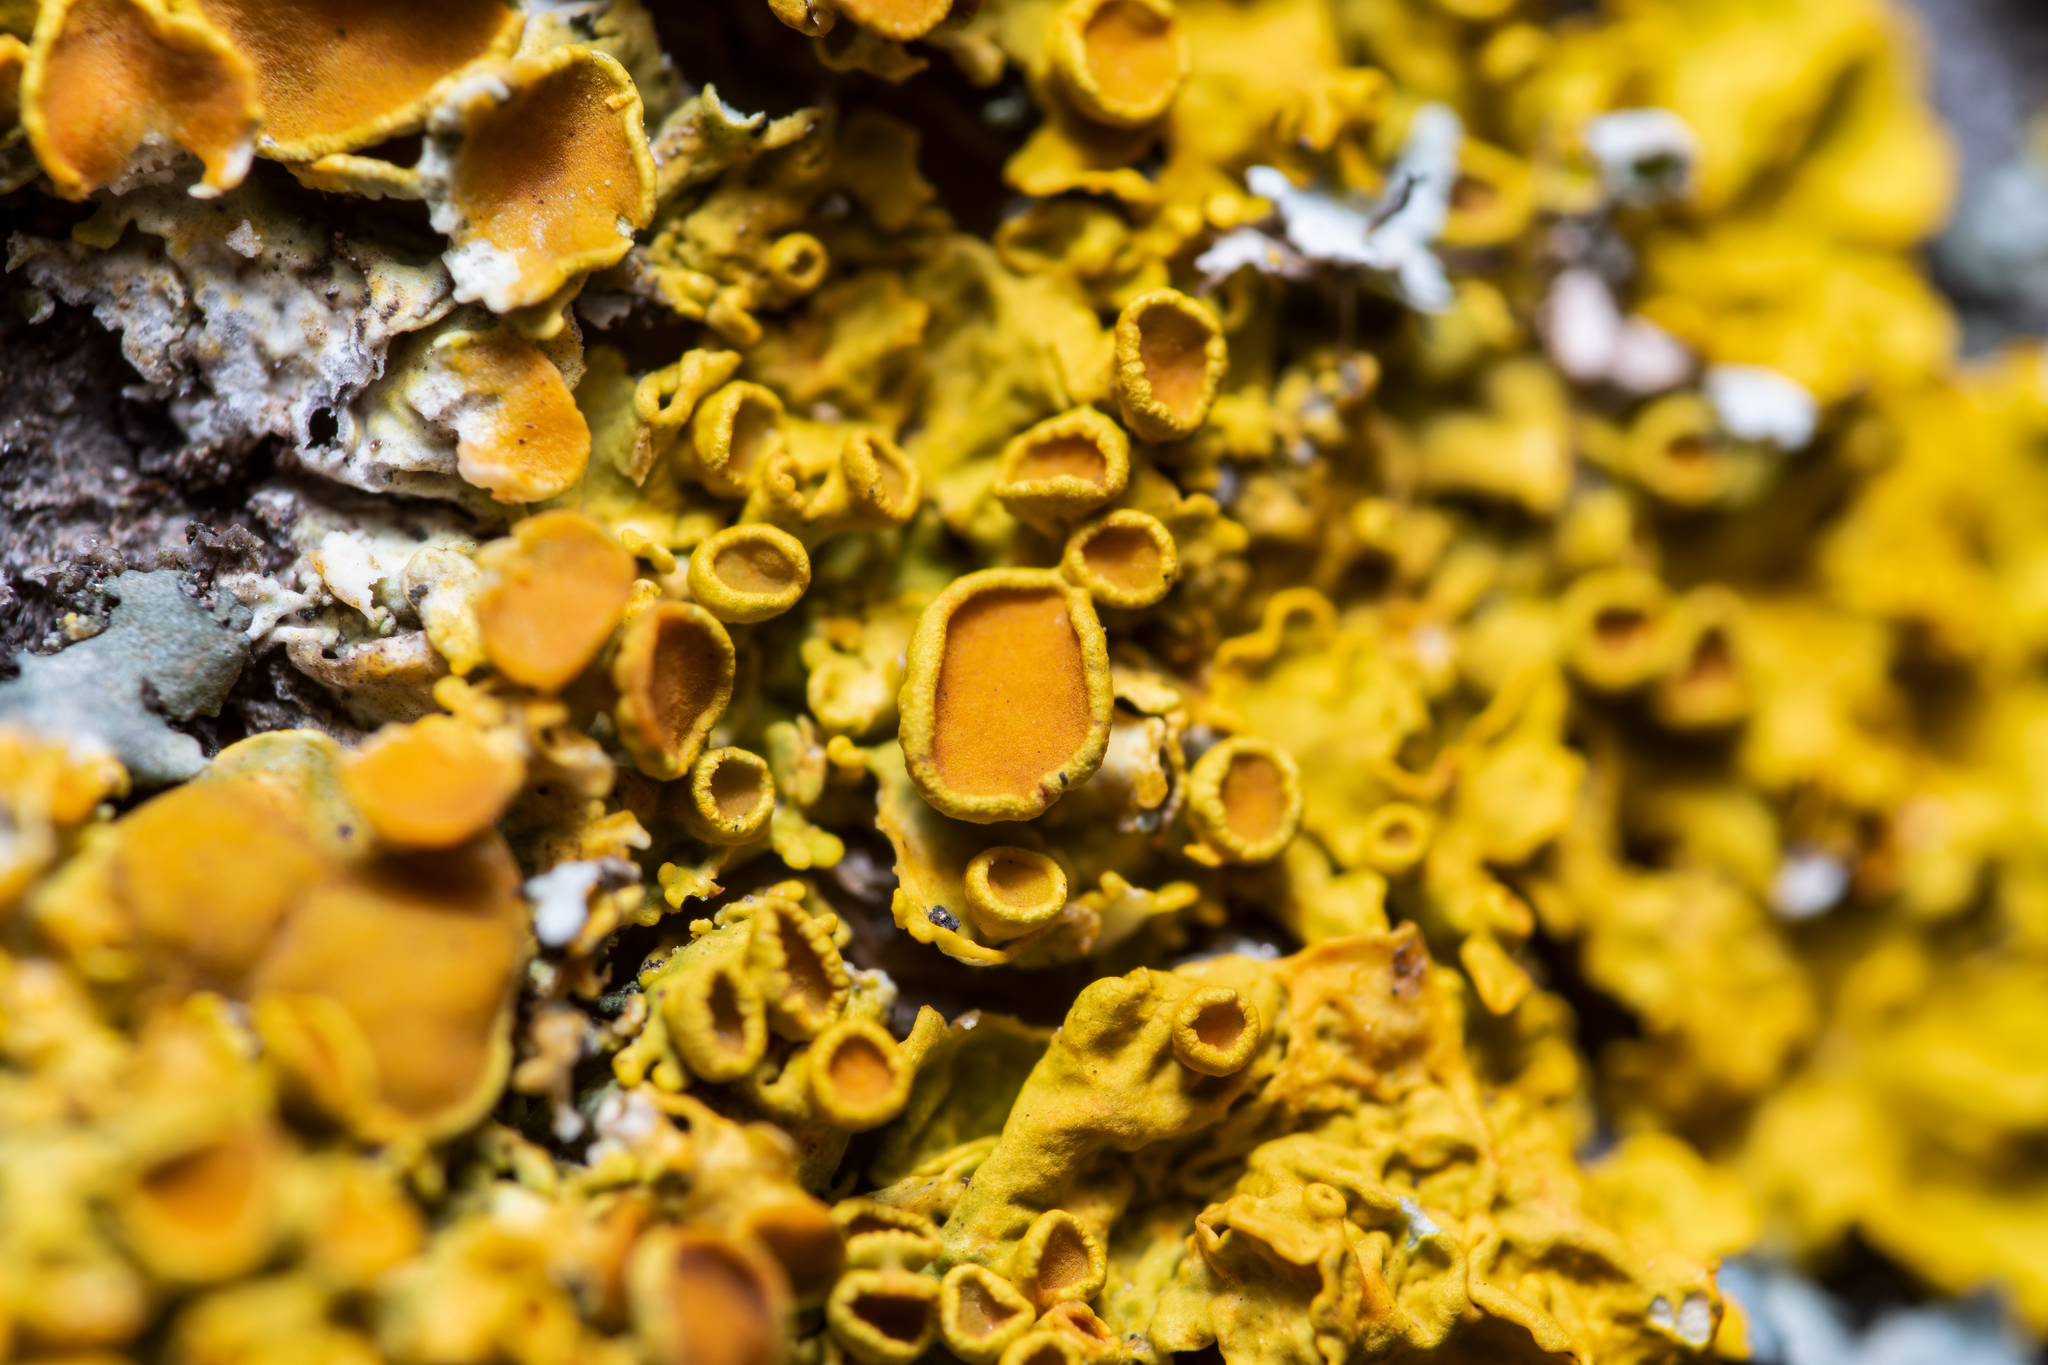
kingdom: Fungi
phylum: Ascomycota
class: Lecanoromycetes
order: Teloschistales
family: Teloschistaceae
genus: Xanthoria
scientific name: Xanthoria parietina
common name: Common orange lichen
